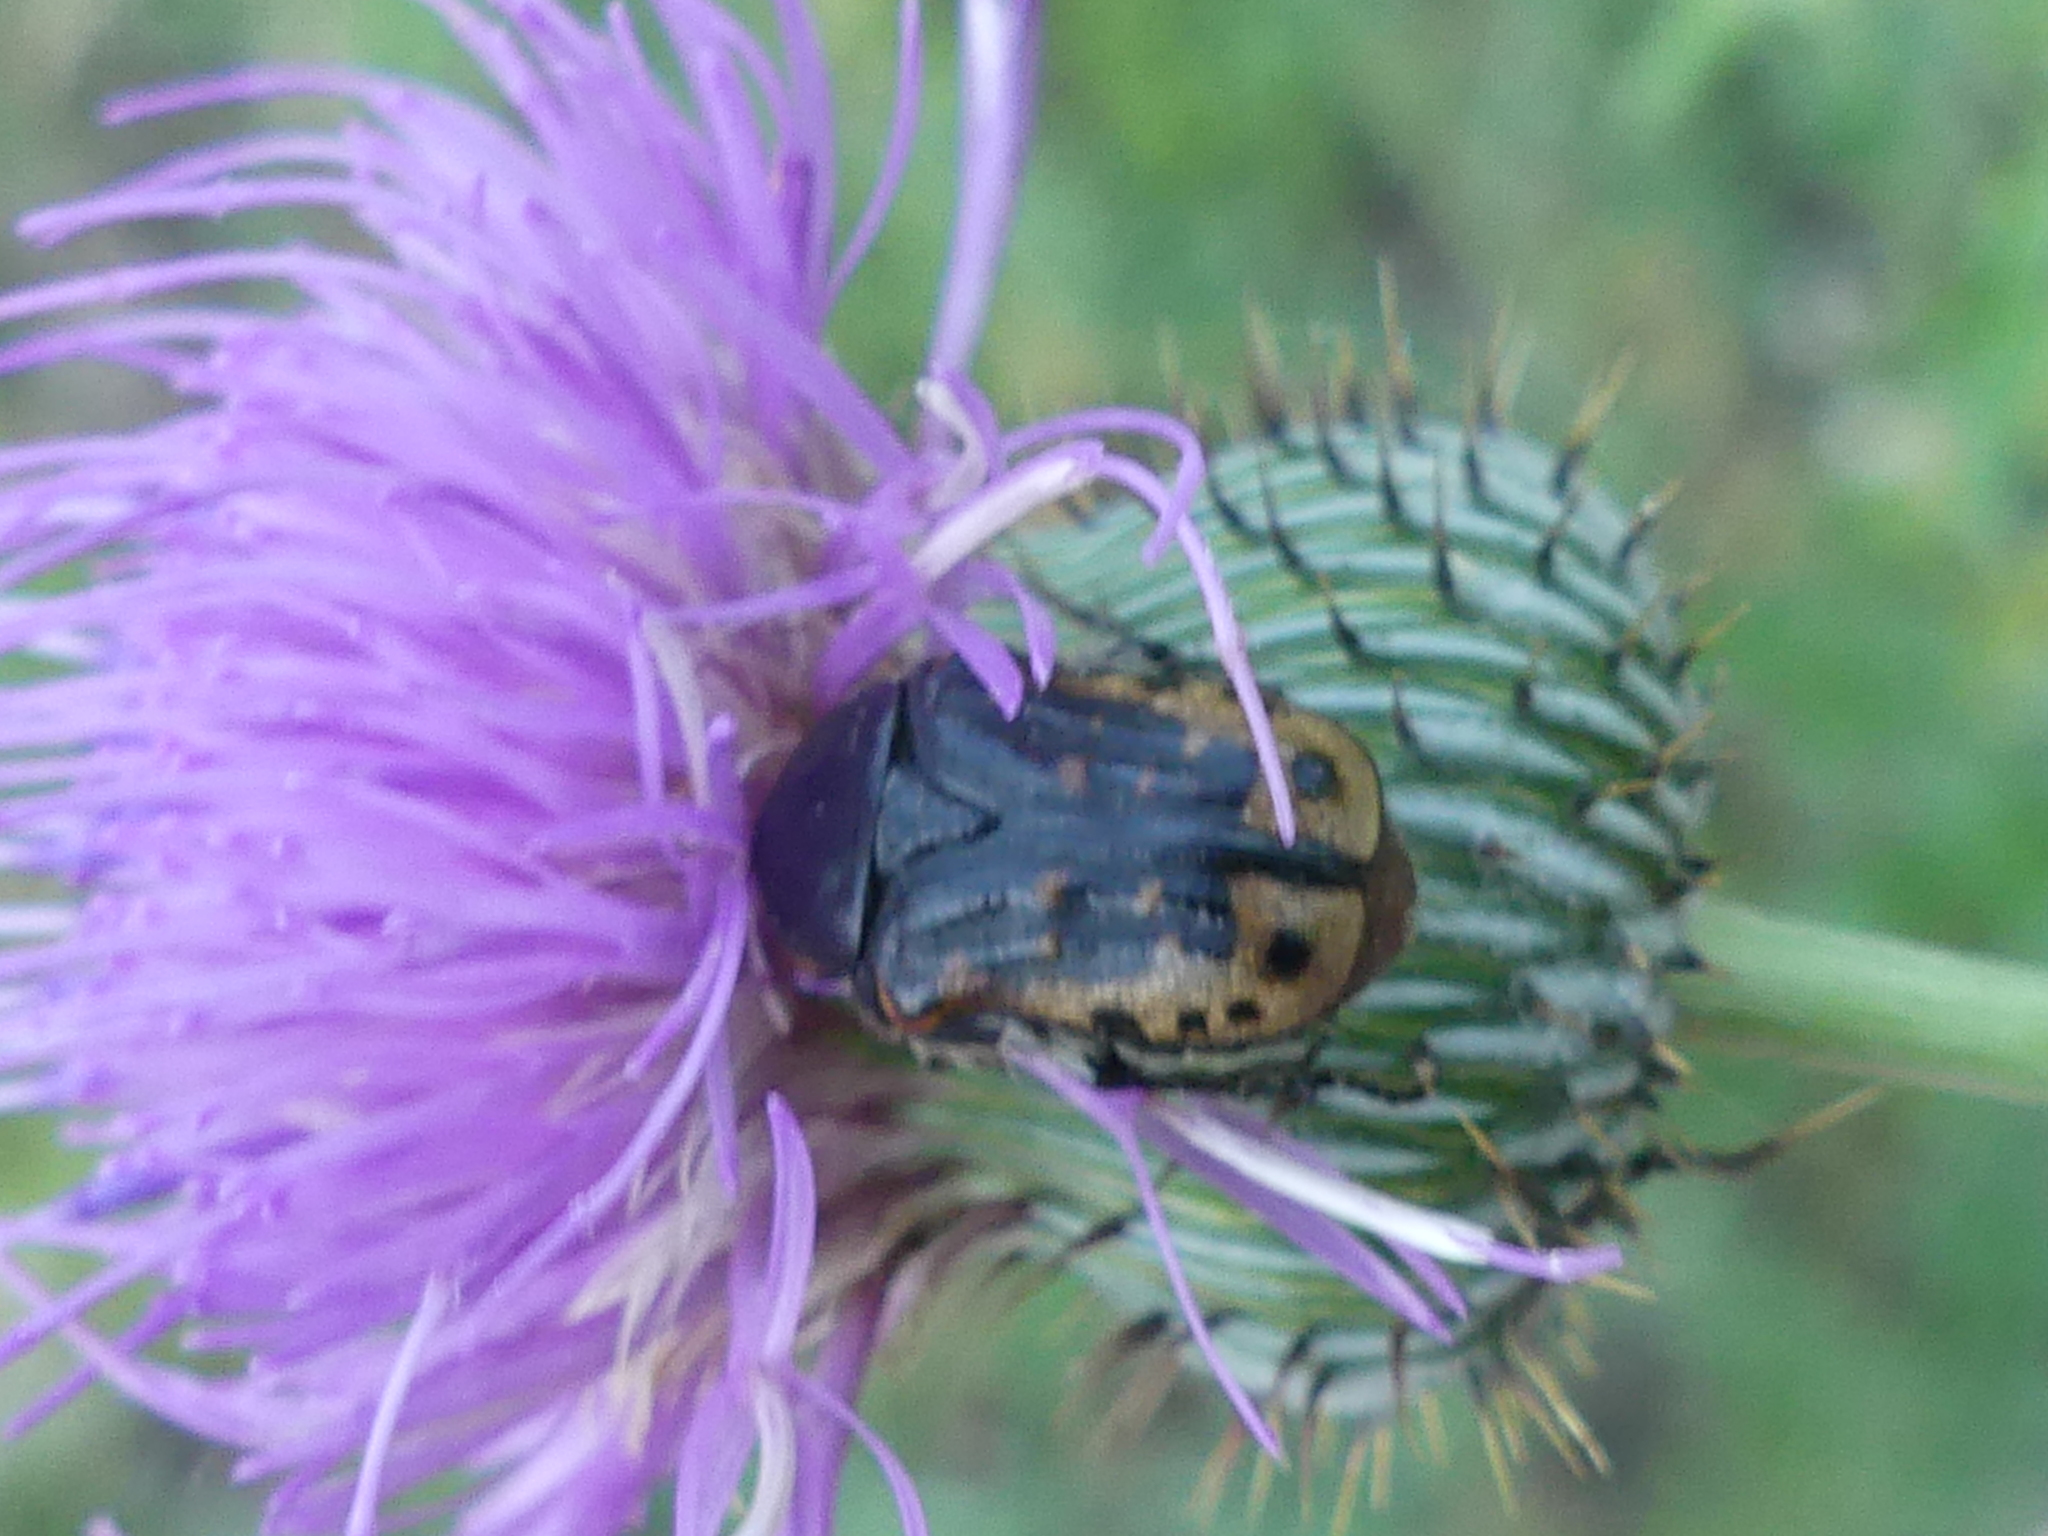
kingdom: Animalia
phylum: Arthropoda
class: Insecta
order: Coleoptera
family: Scarabaeidae
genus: Euphoria
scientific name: Euphoria kernii
